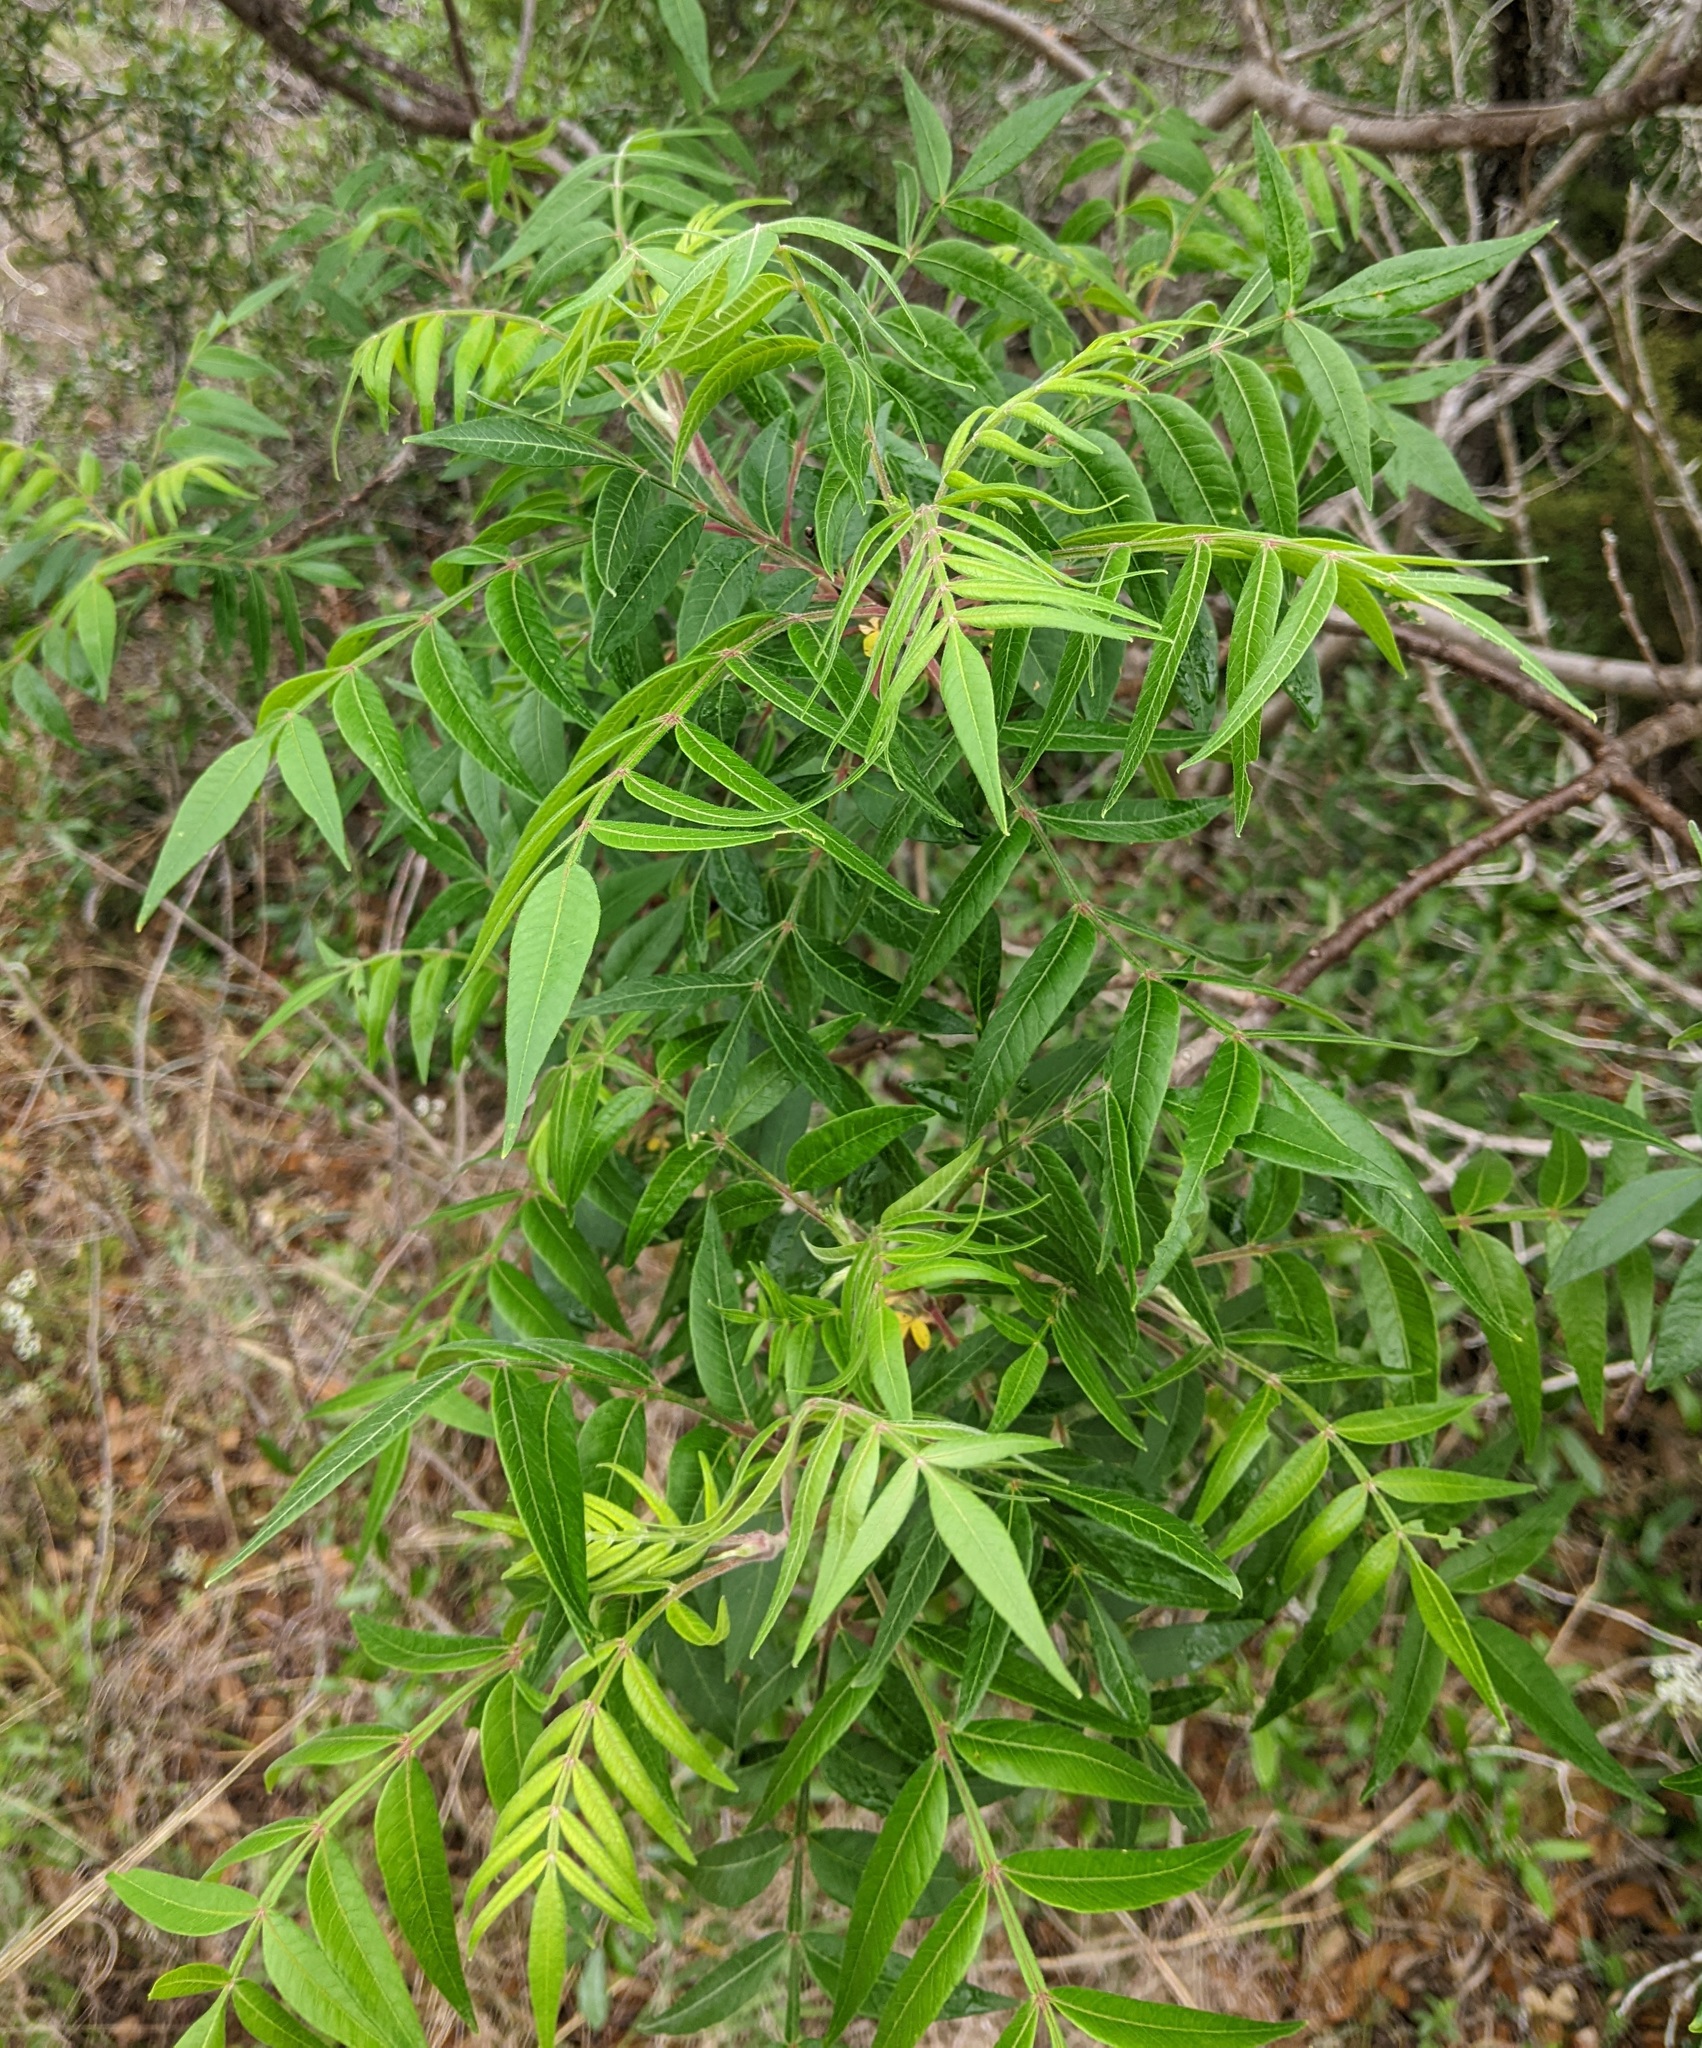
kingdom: Plantae
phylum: Tracheophyta
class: Magnoliopsida
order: Sapindales
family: Anacardiaceae
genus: Rhus
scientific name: Rhus lanceolata
